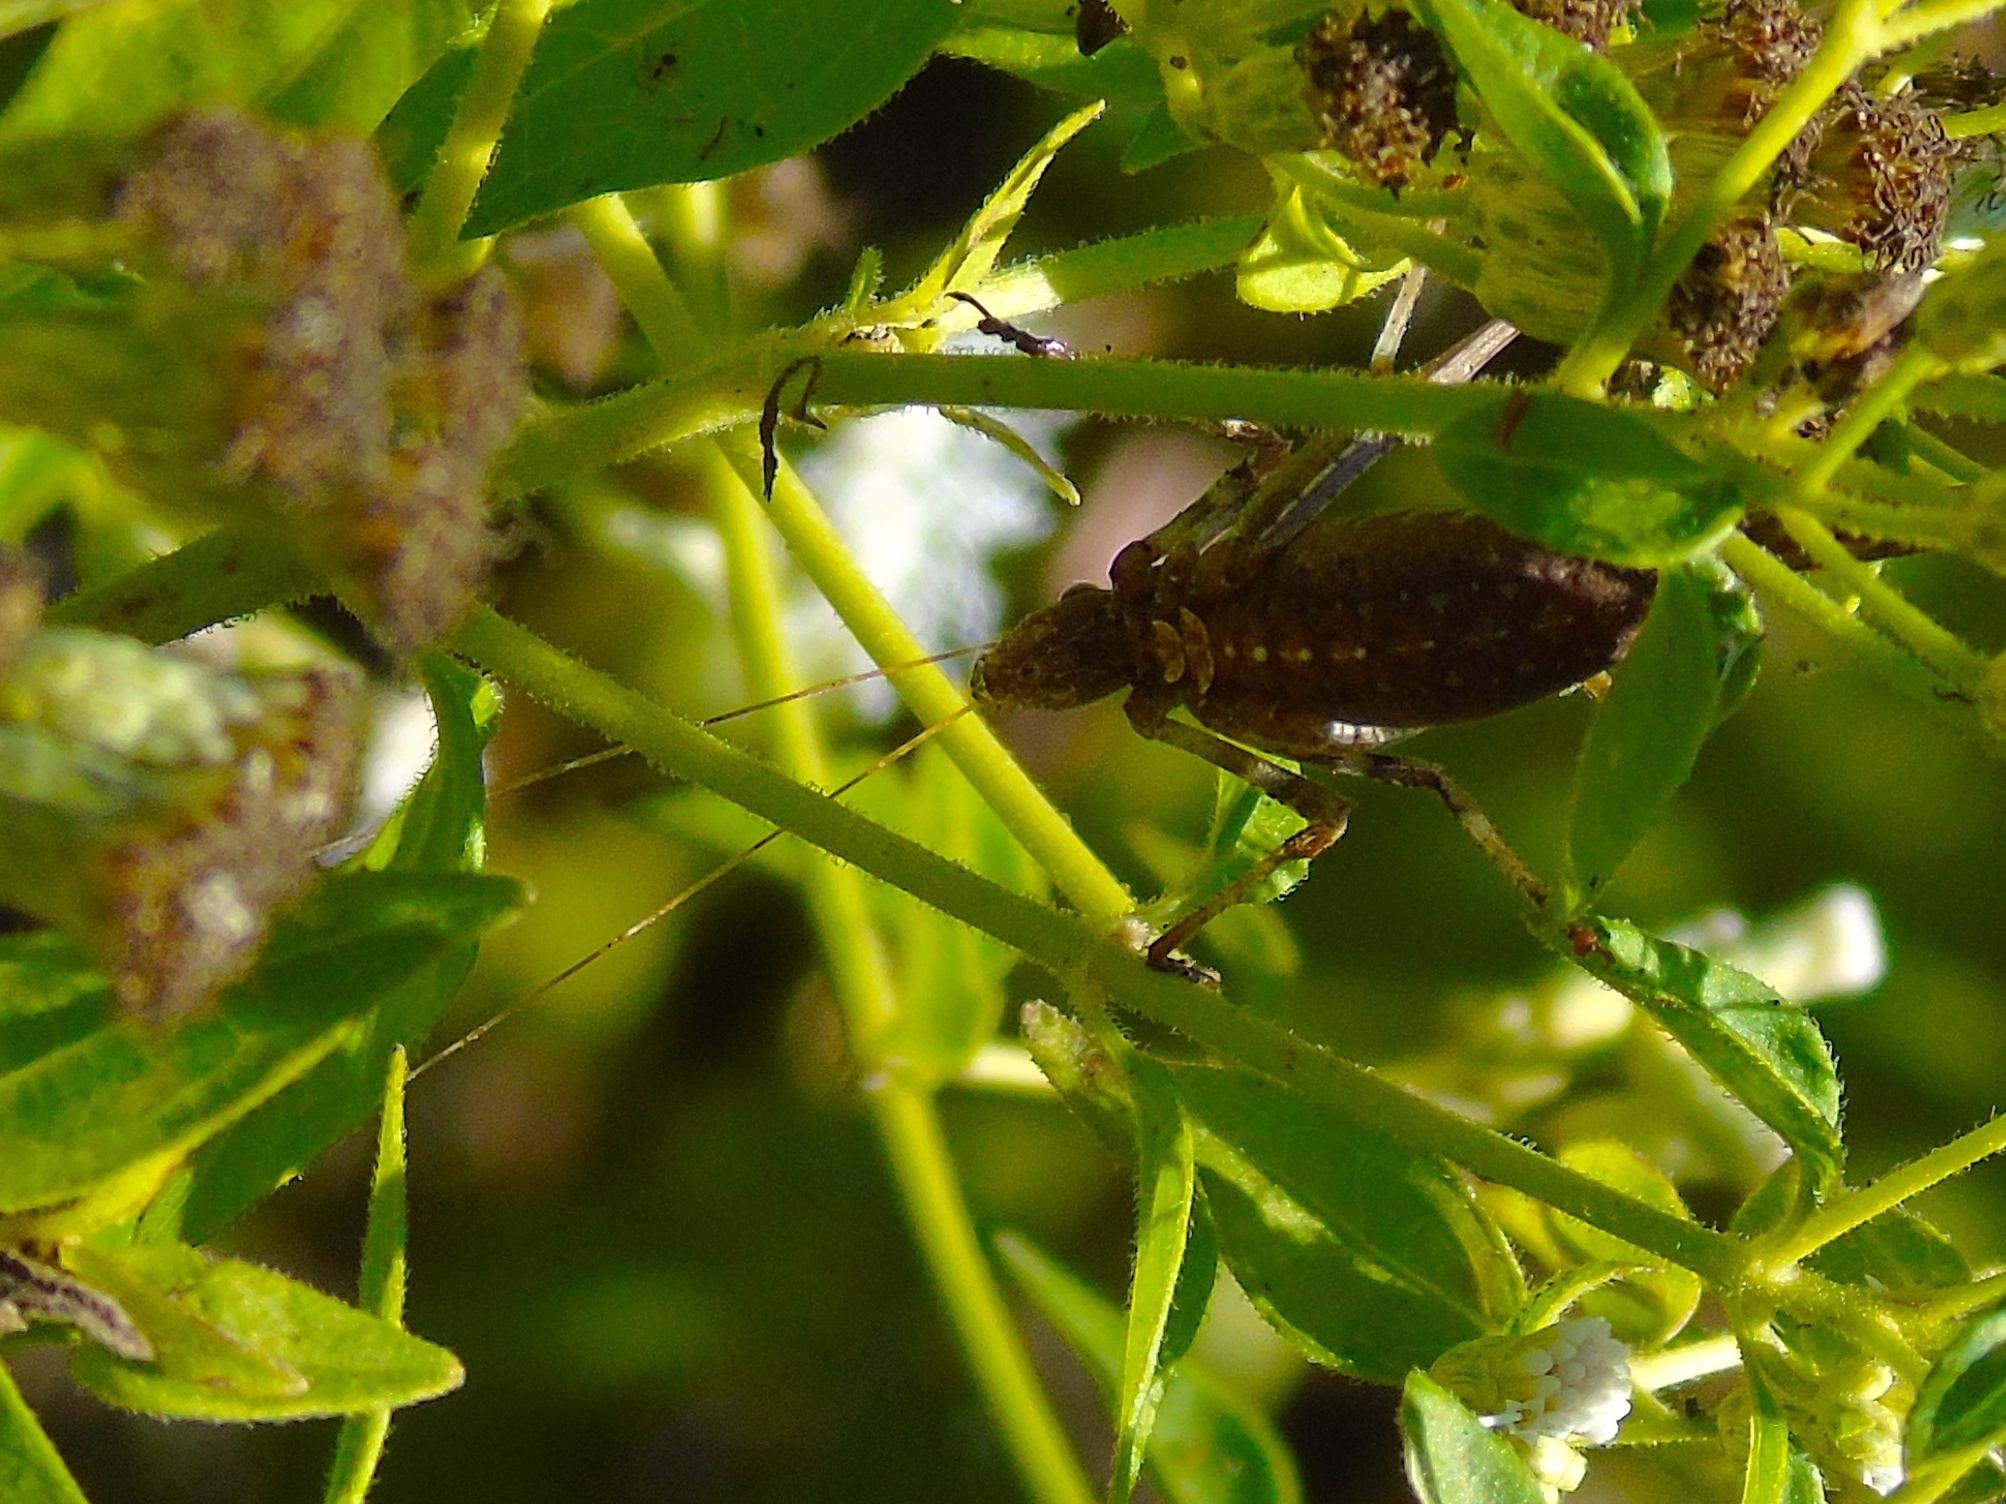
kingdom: Animalia
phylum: Arthropoda
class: Insecta
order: Orthoptera
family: Phaneropteridae
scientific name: Phaneropteridae
